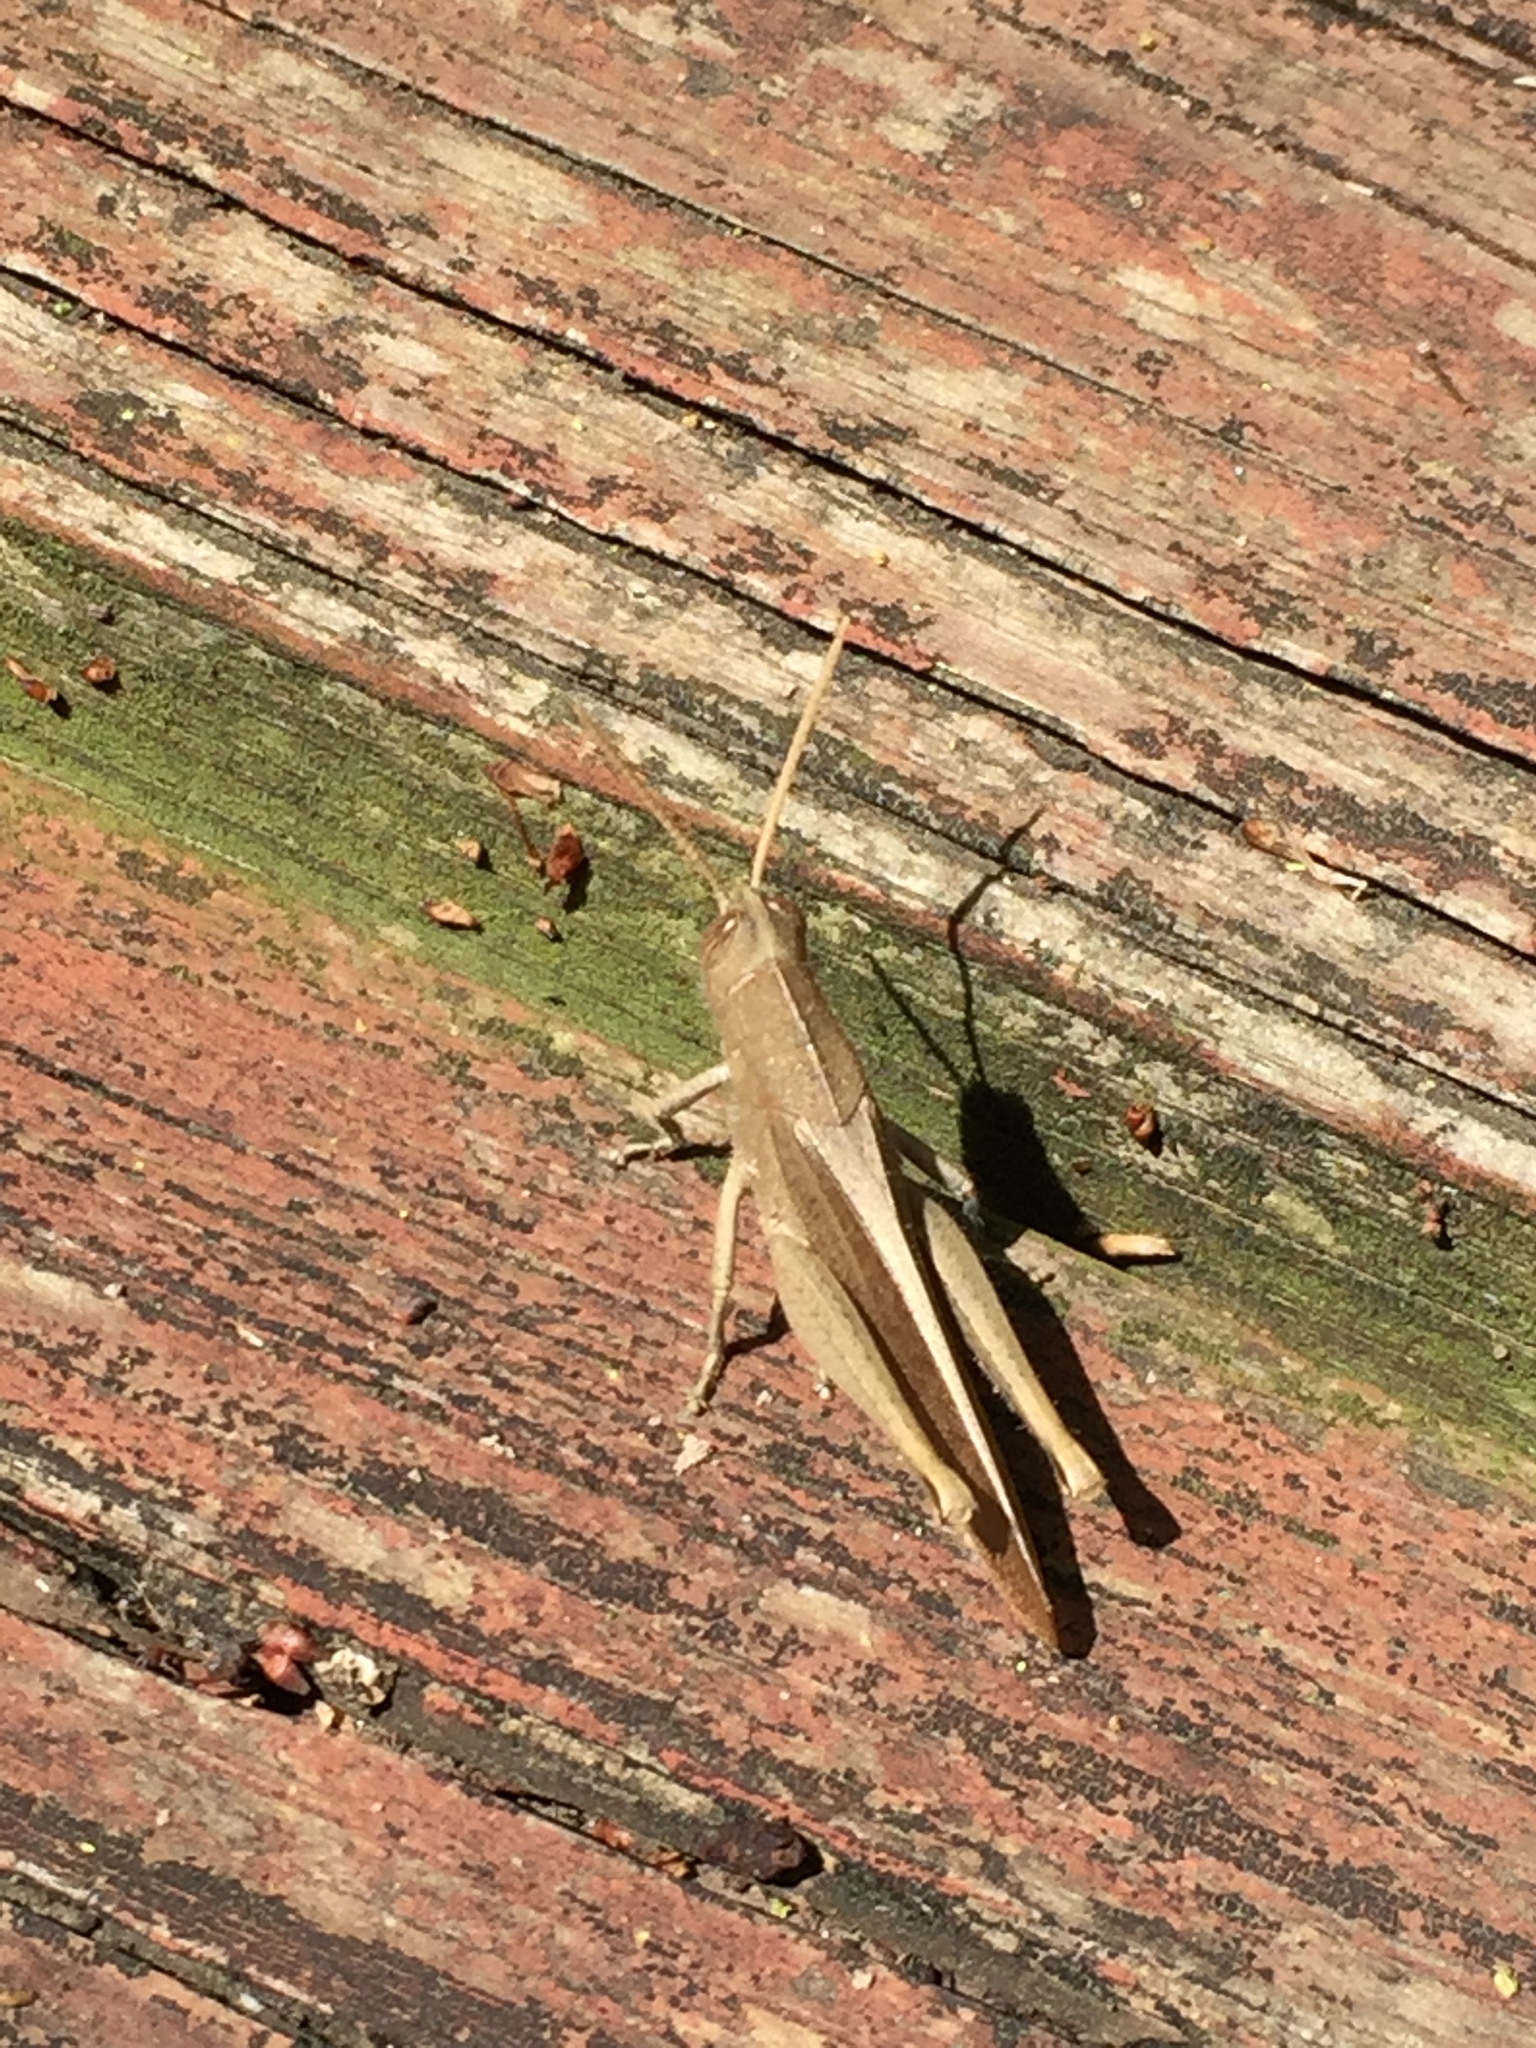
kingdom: Animalia
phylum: Arthropoda
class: Insecta
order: Orthoptera
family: Acrididae
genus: Schistocerca
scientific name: Schistocerca damnifica
